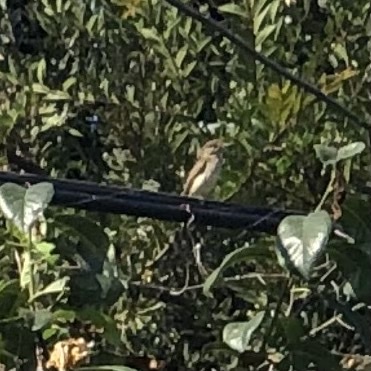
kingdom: Animalia
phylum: Chordata
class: Aves
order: Passeriformes
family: Tyrannidae
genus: Empidonax
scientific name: Empidonax traillii
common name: Willow flycatcher
